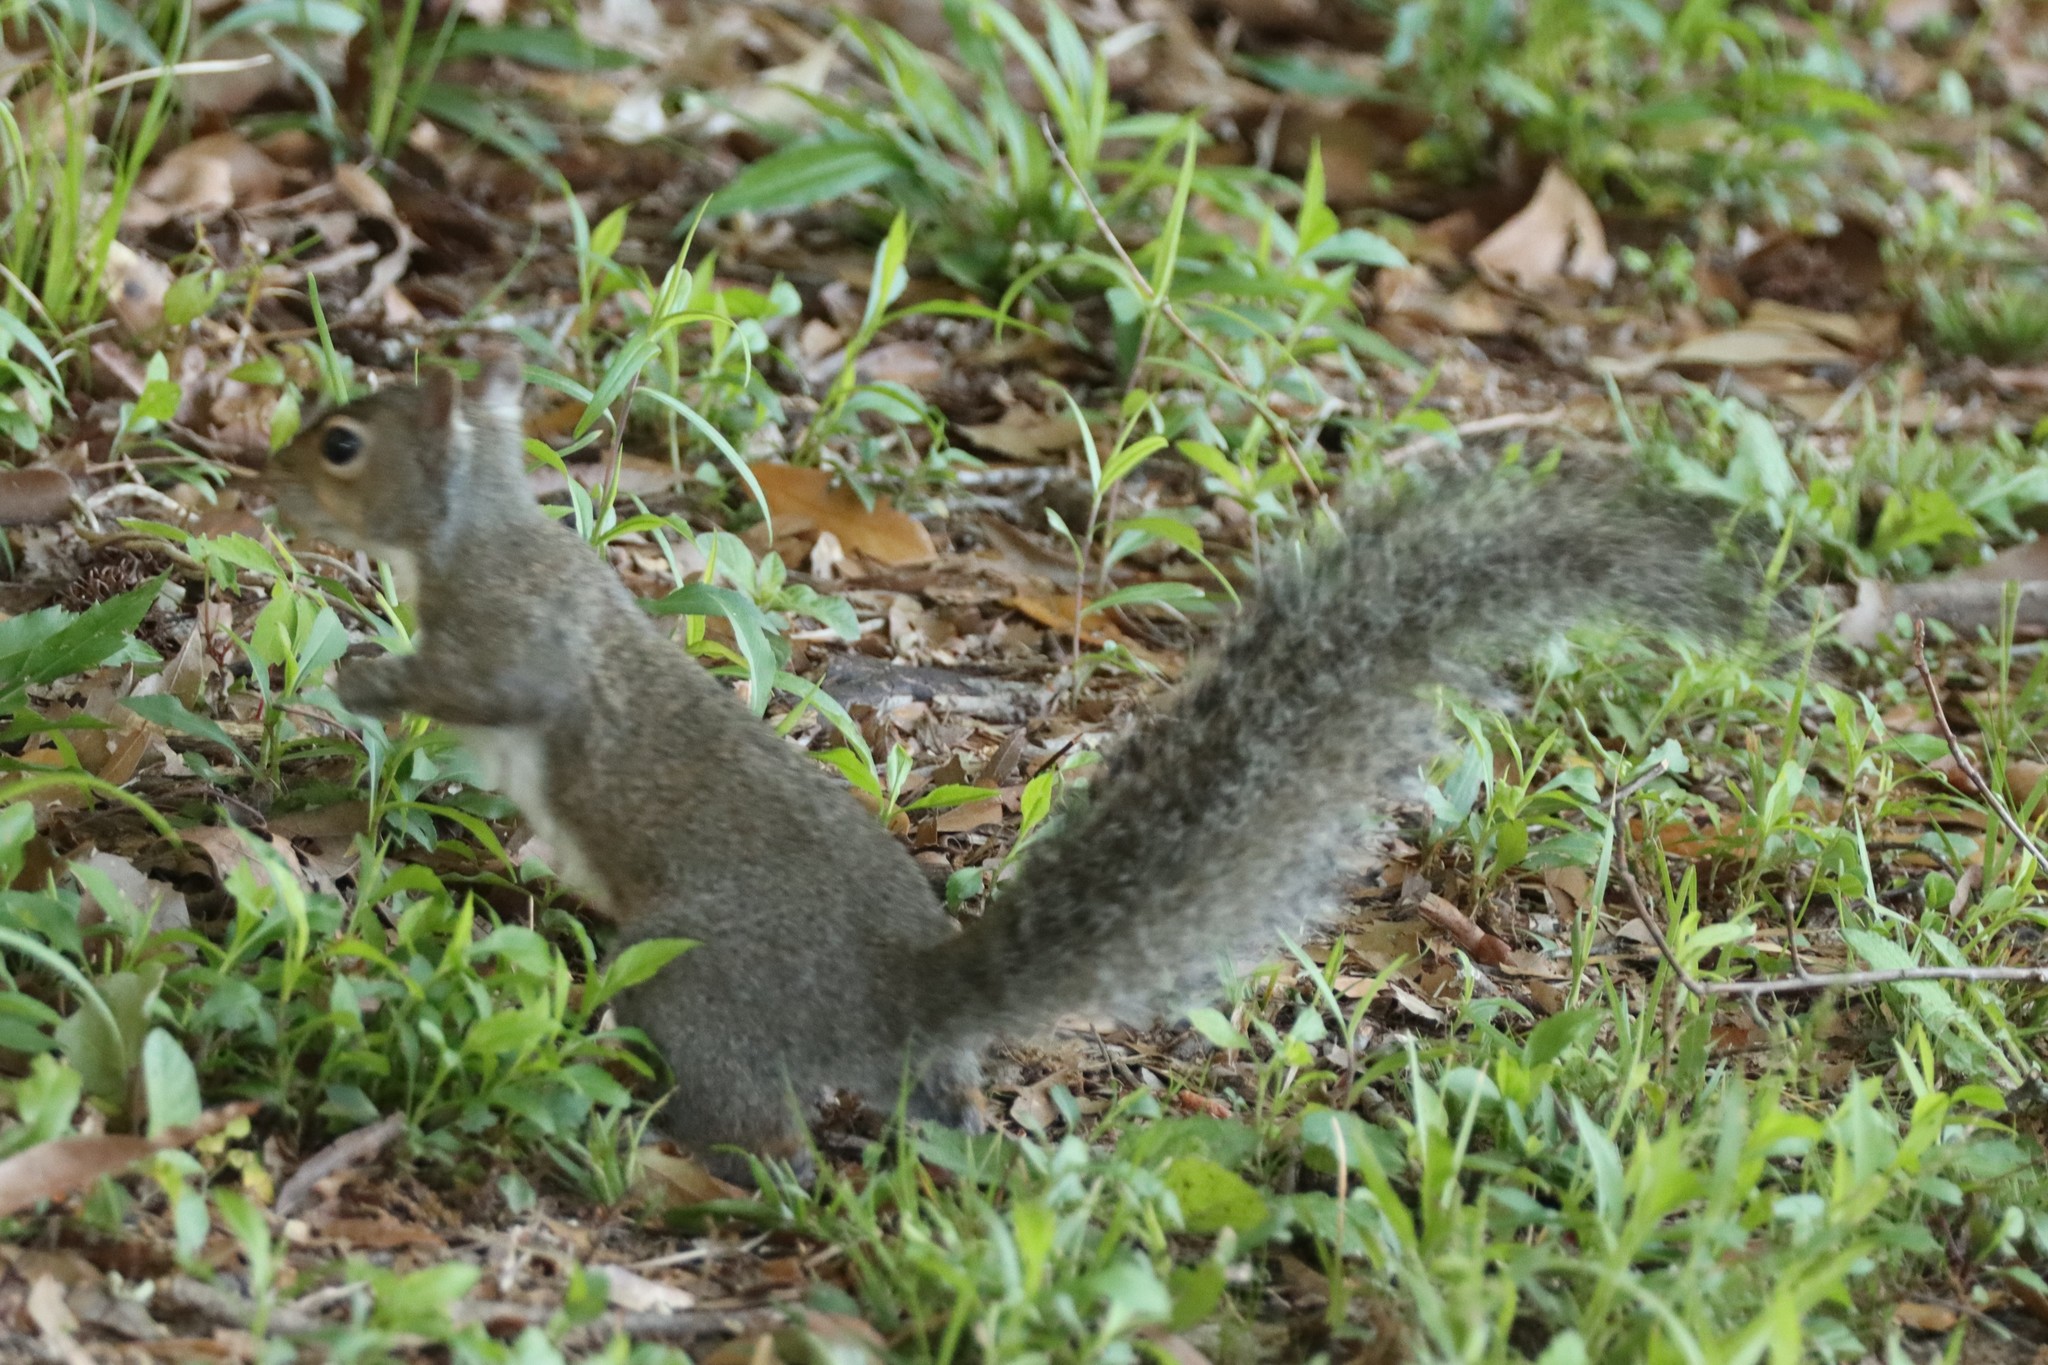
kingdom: Animalia
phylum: Chordata
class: Mammalia
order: Rodentia
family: Sciuridae
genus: Sciurus
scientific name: Sciurus carolinensis
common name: Eastern gray squirrel
